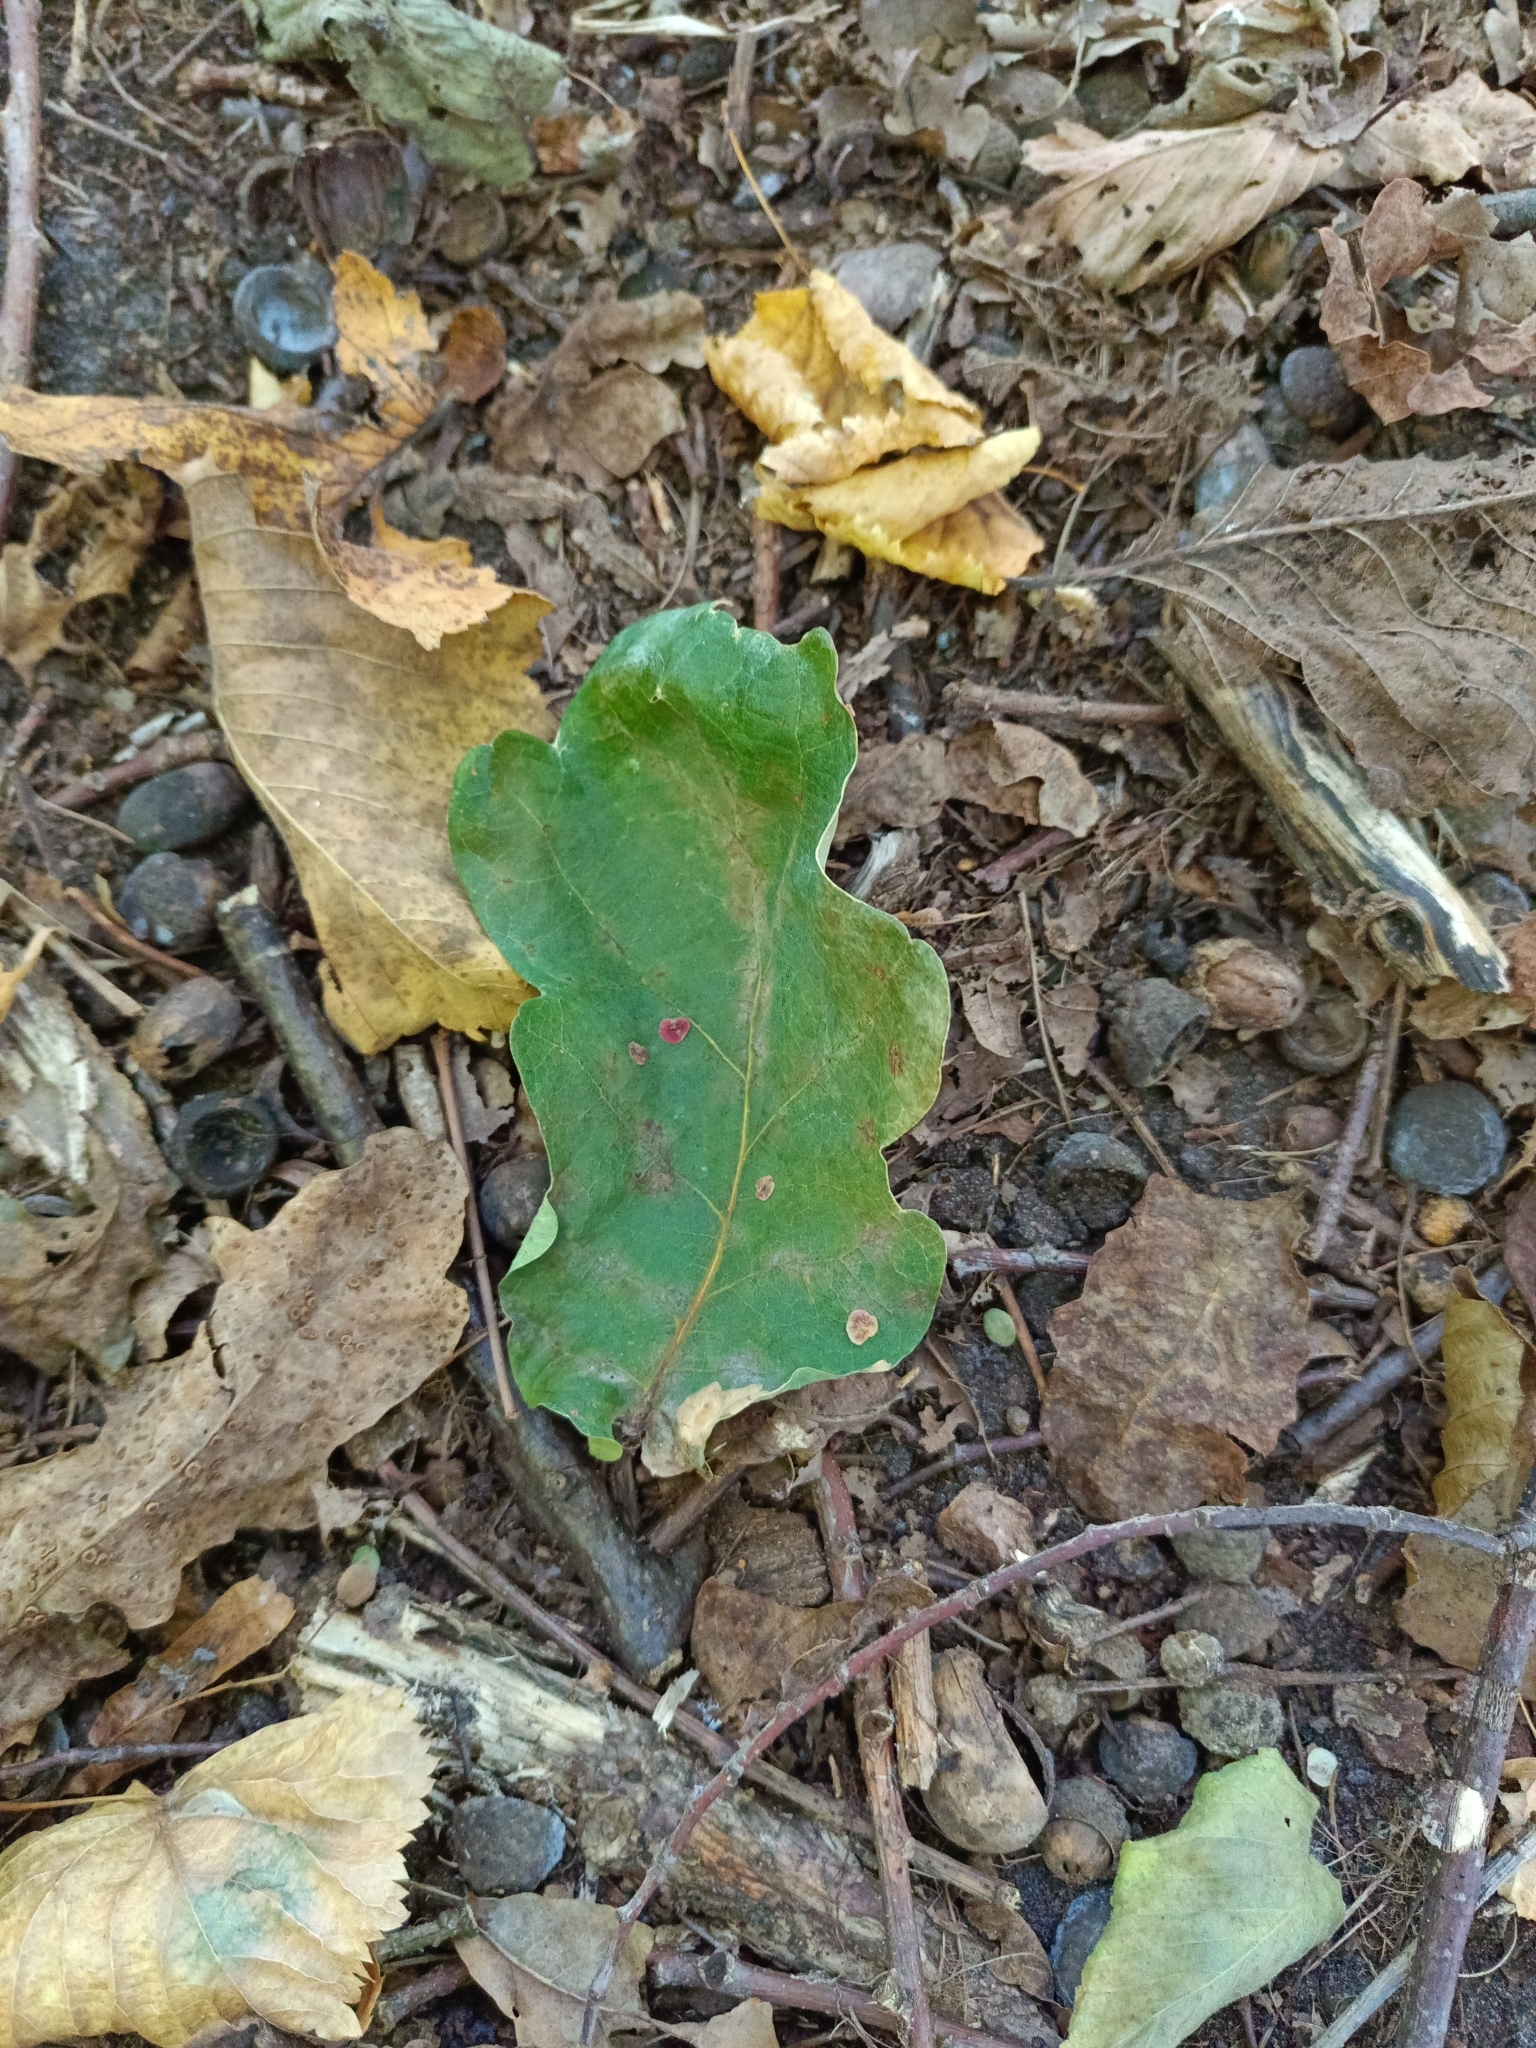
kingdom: Plantae
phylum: Tracheophyta
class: Magnoliopsida
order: Fagales
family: Fagaceae
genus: Quercus
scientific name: Quercus robur
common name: Pedunculate oak
